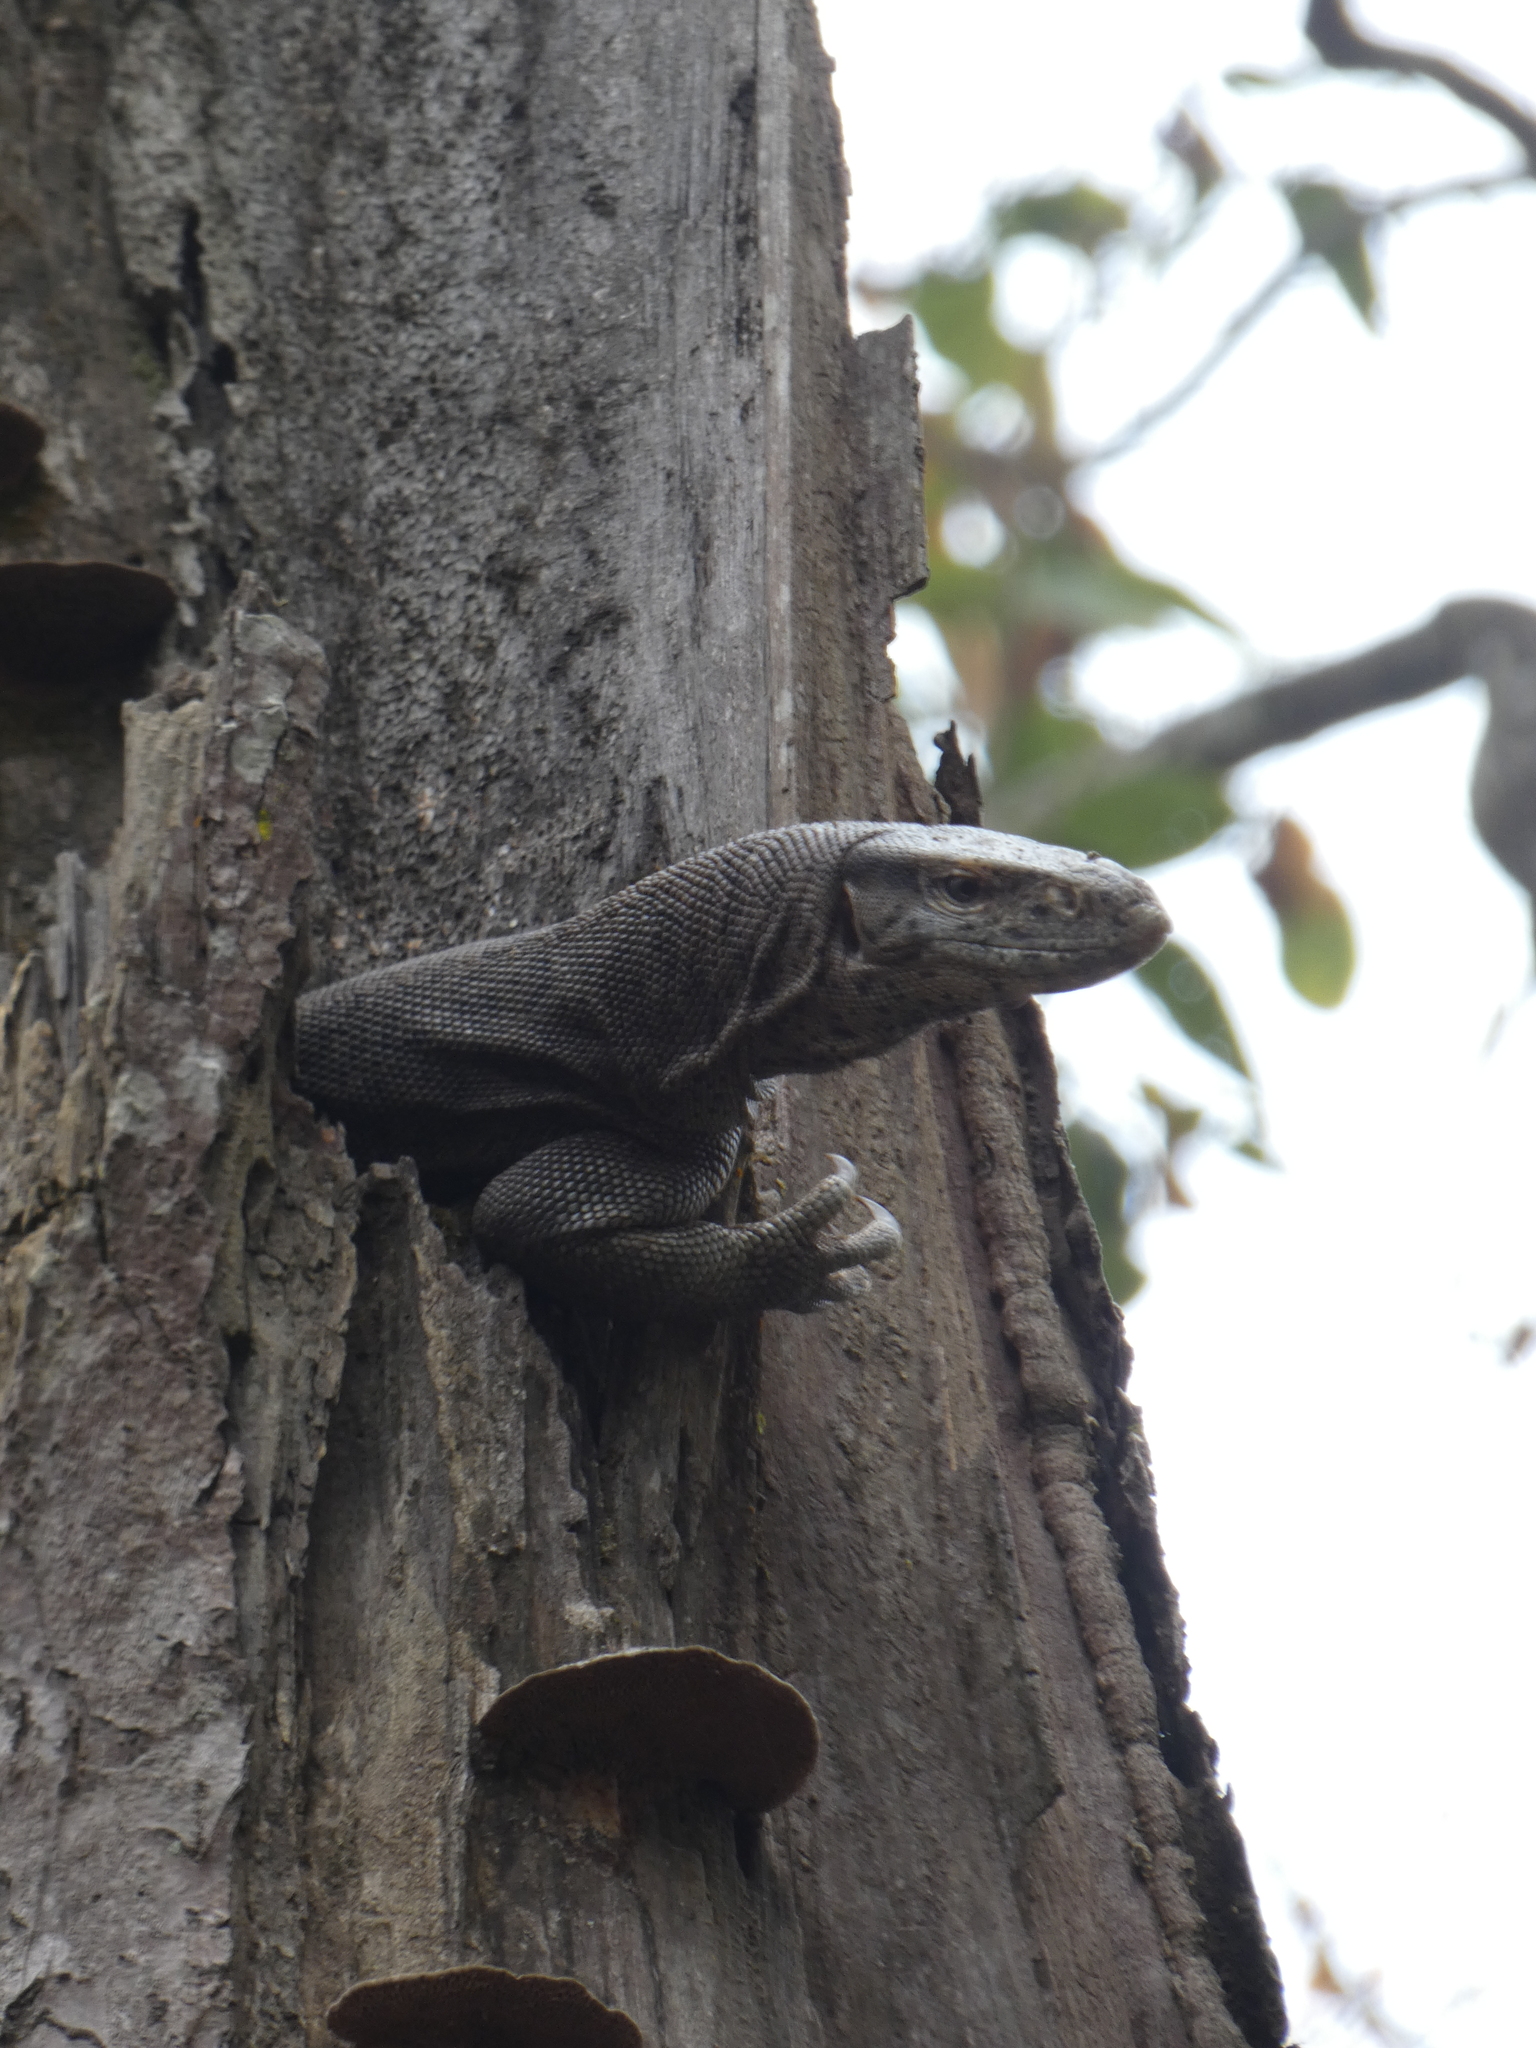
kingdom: Animalia
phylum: Chordata
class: Squamata
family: Varanidae
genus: Varanus
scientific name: Varanus bengalensis
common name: Bengal monitor
